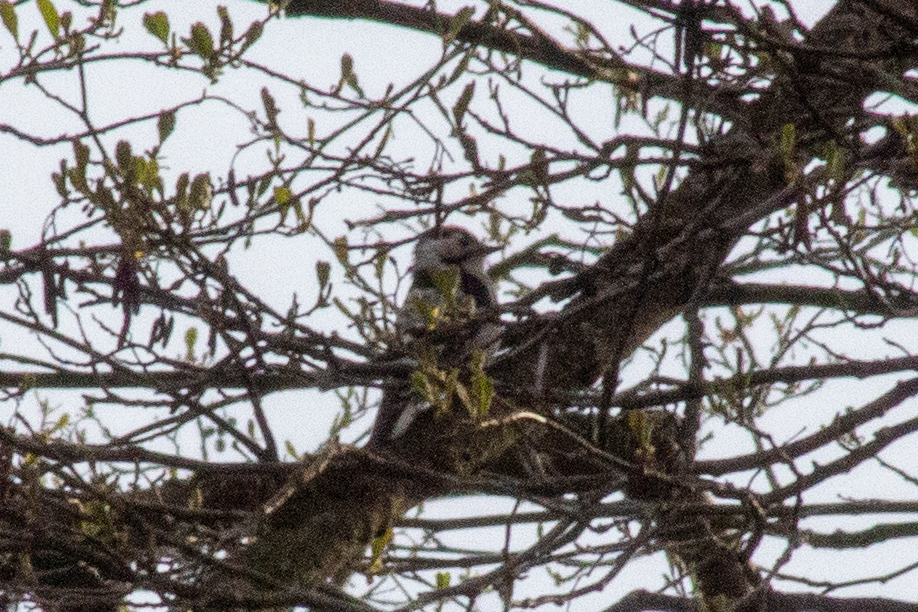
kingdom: Animalia
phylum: Chordata
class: Aves
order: Piciformes
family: Picidae
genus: Dryobates
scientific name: Dryobates minor
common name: Lesser spotted woodpecker
